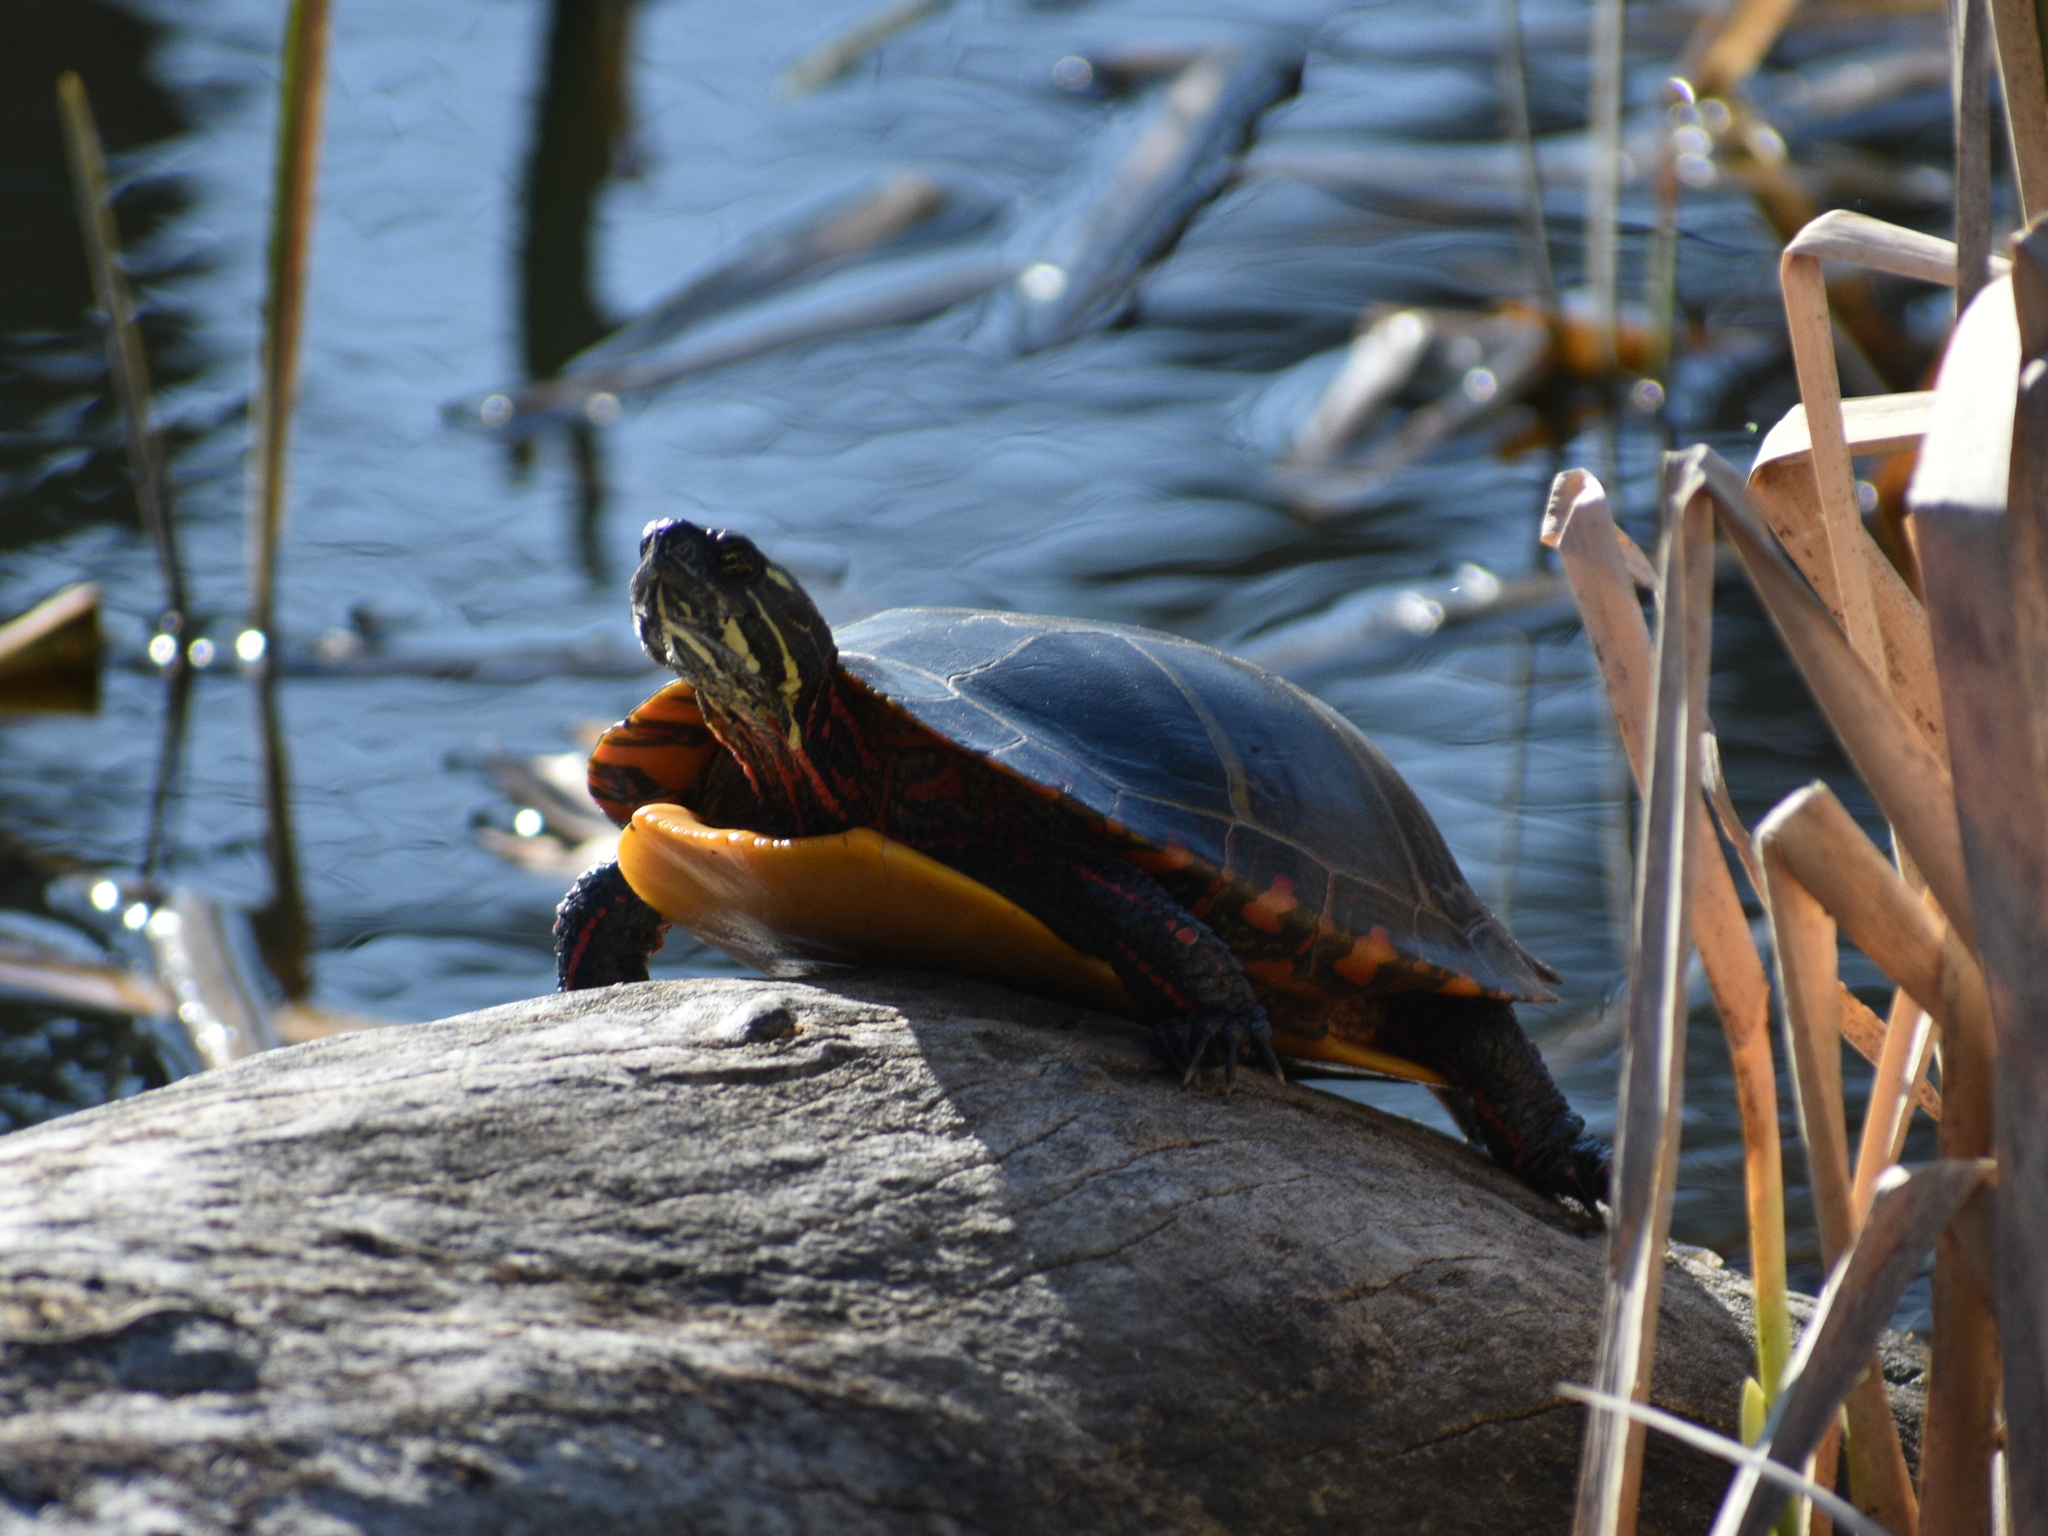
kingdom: Animalia
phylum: Chordata
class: Testudines
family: Emydidae
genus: Chrysemys
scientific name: Chrysemys picta
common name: Painted turtle
